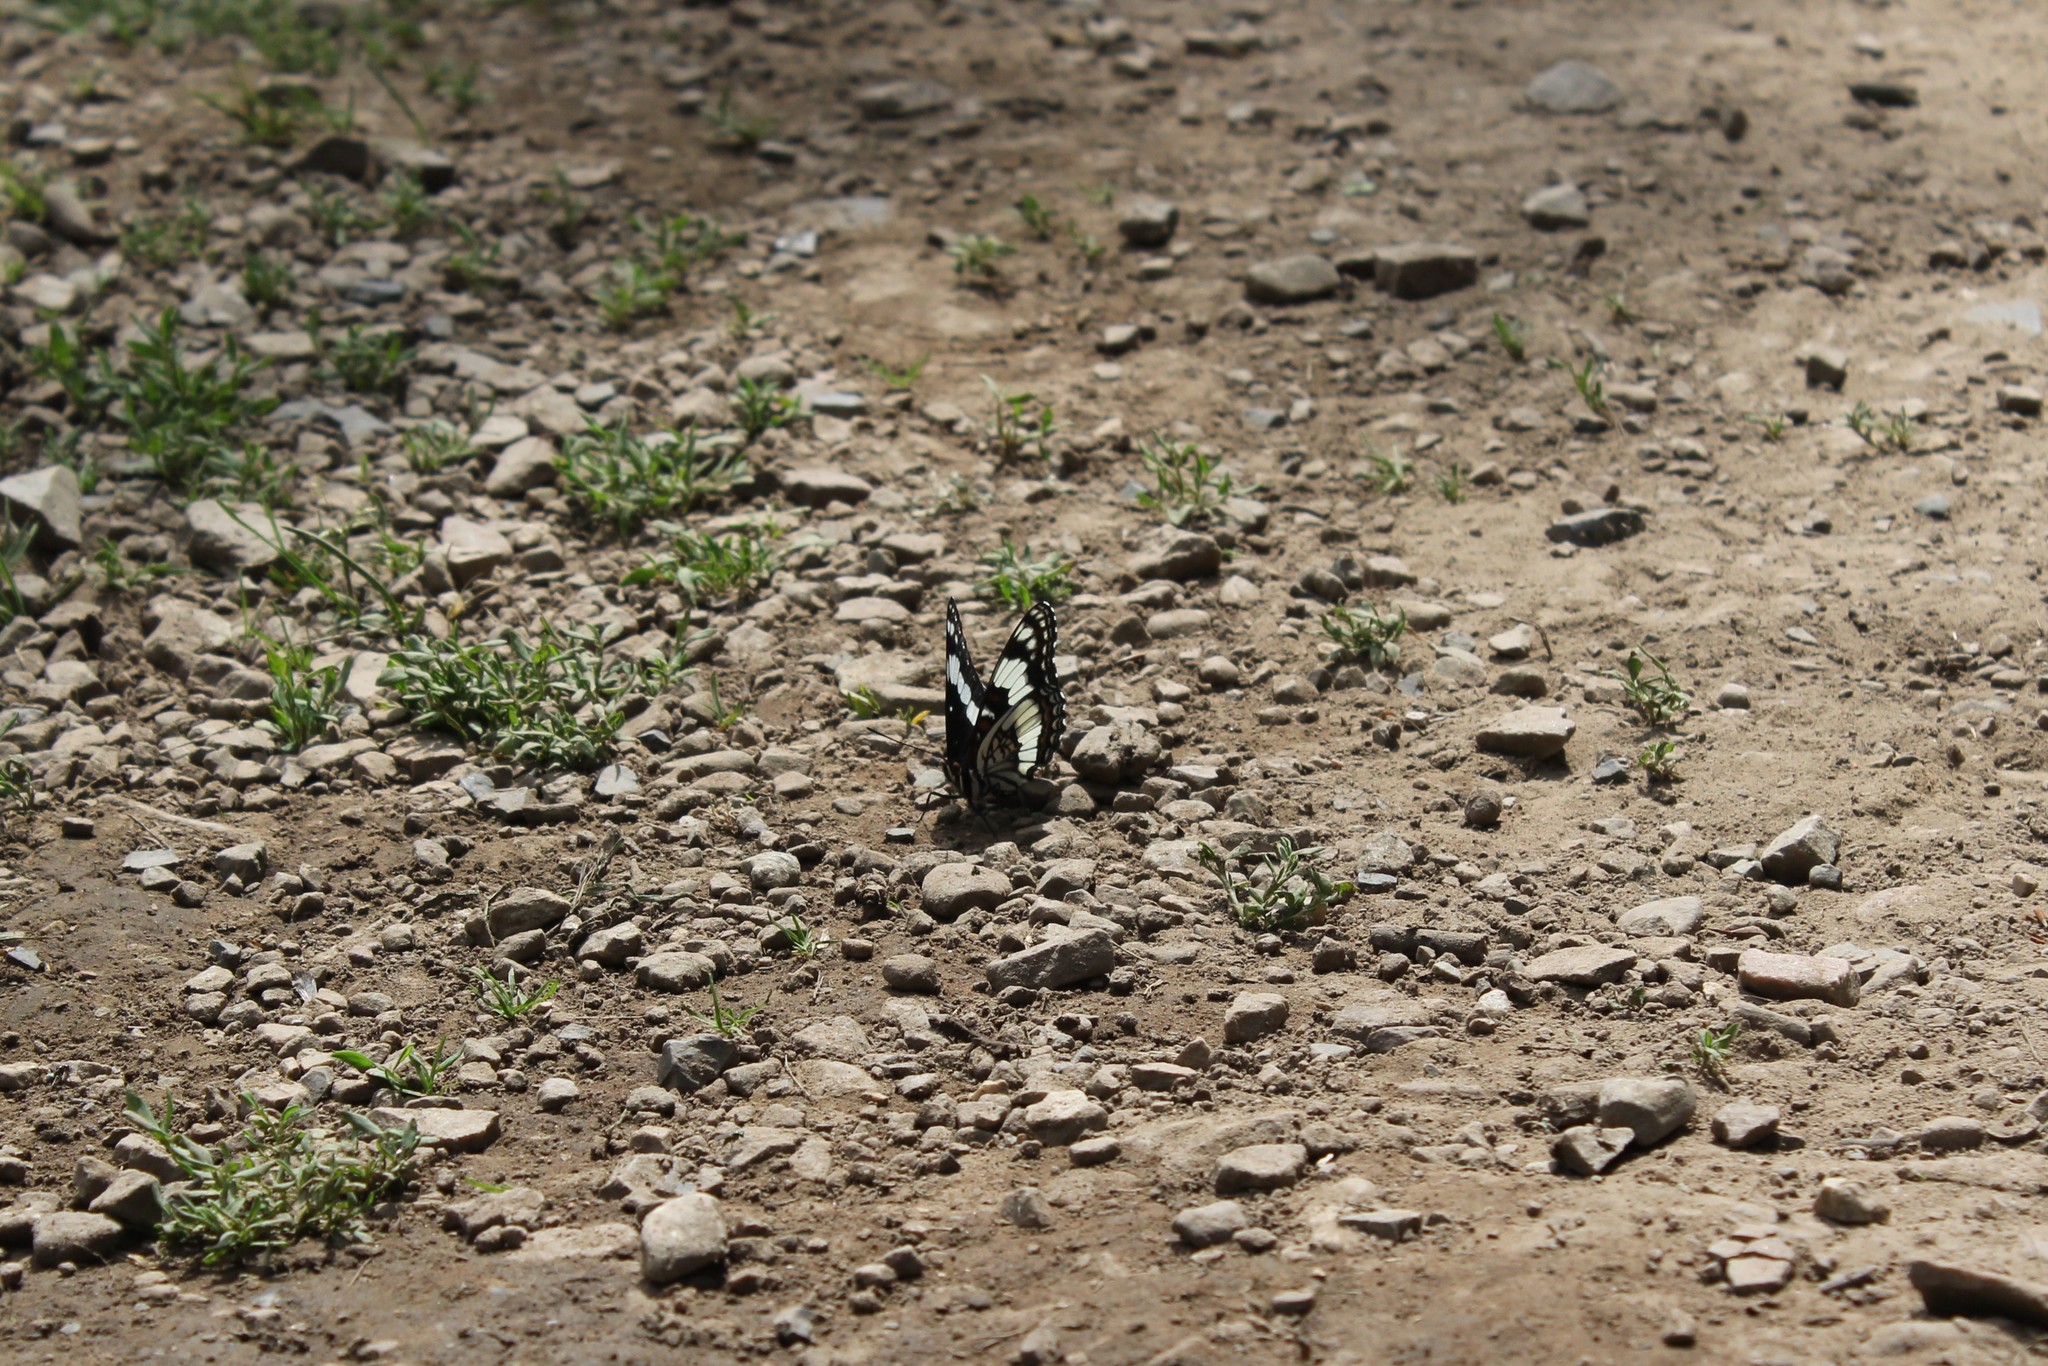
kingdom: Animalia
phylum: Arthropoda
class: Insecta
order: Lepidoptera
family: Nymphalidae
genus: Limenitis
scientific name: Limenitis weidemeyerii
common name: Weidemeyer's admiral
